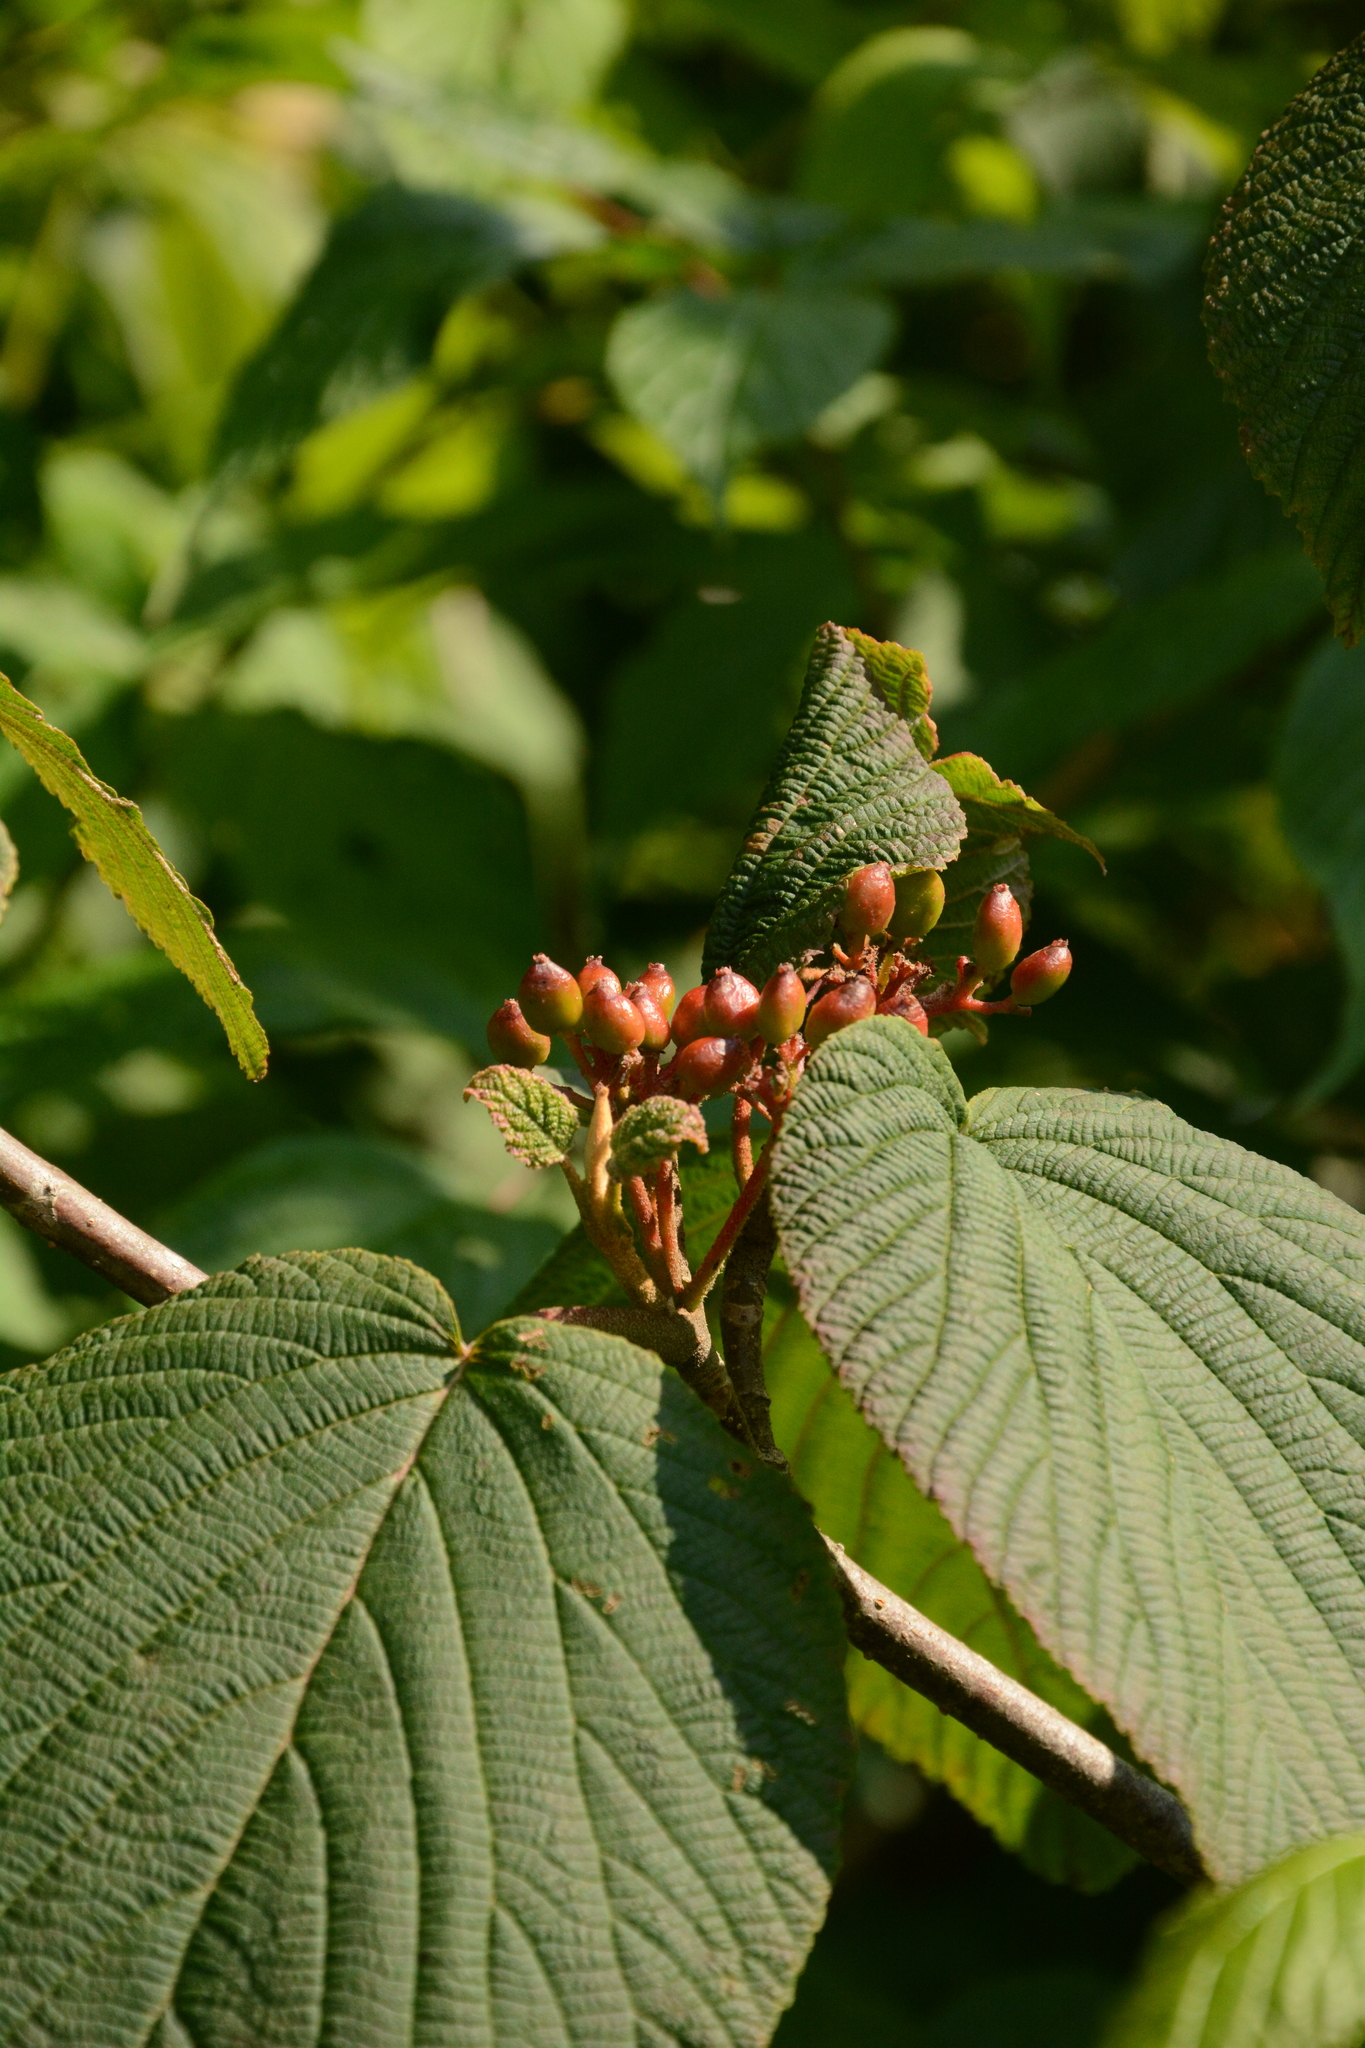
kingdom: Plantae
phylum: Tracheophyta
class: Magnoliopsida
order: Dipsacales
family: Viburnaceae
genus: Viburnum
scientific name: Viburnum lantanoides
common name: Hobblebush
